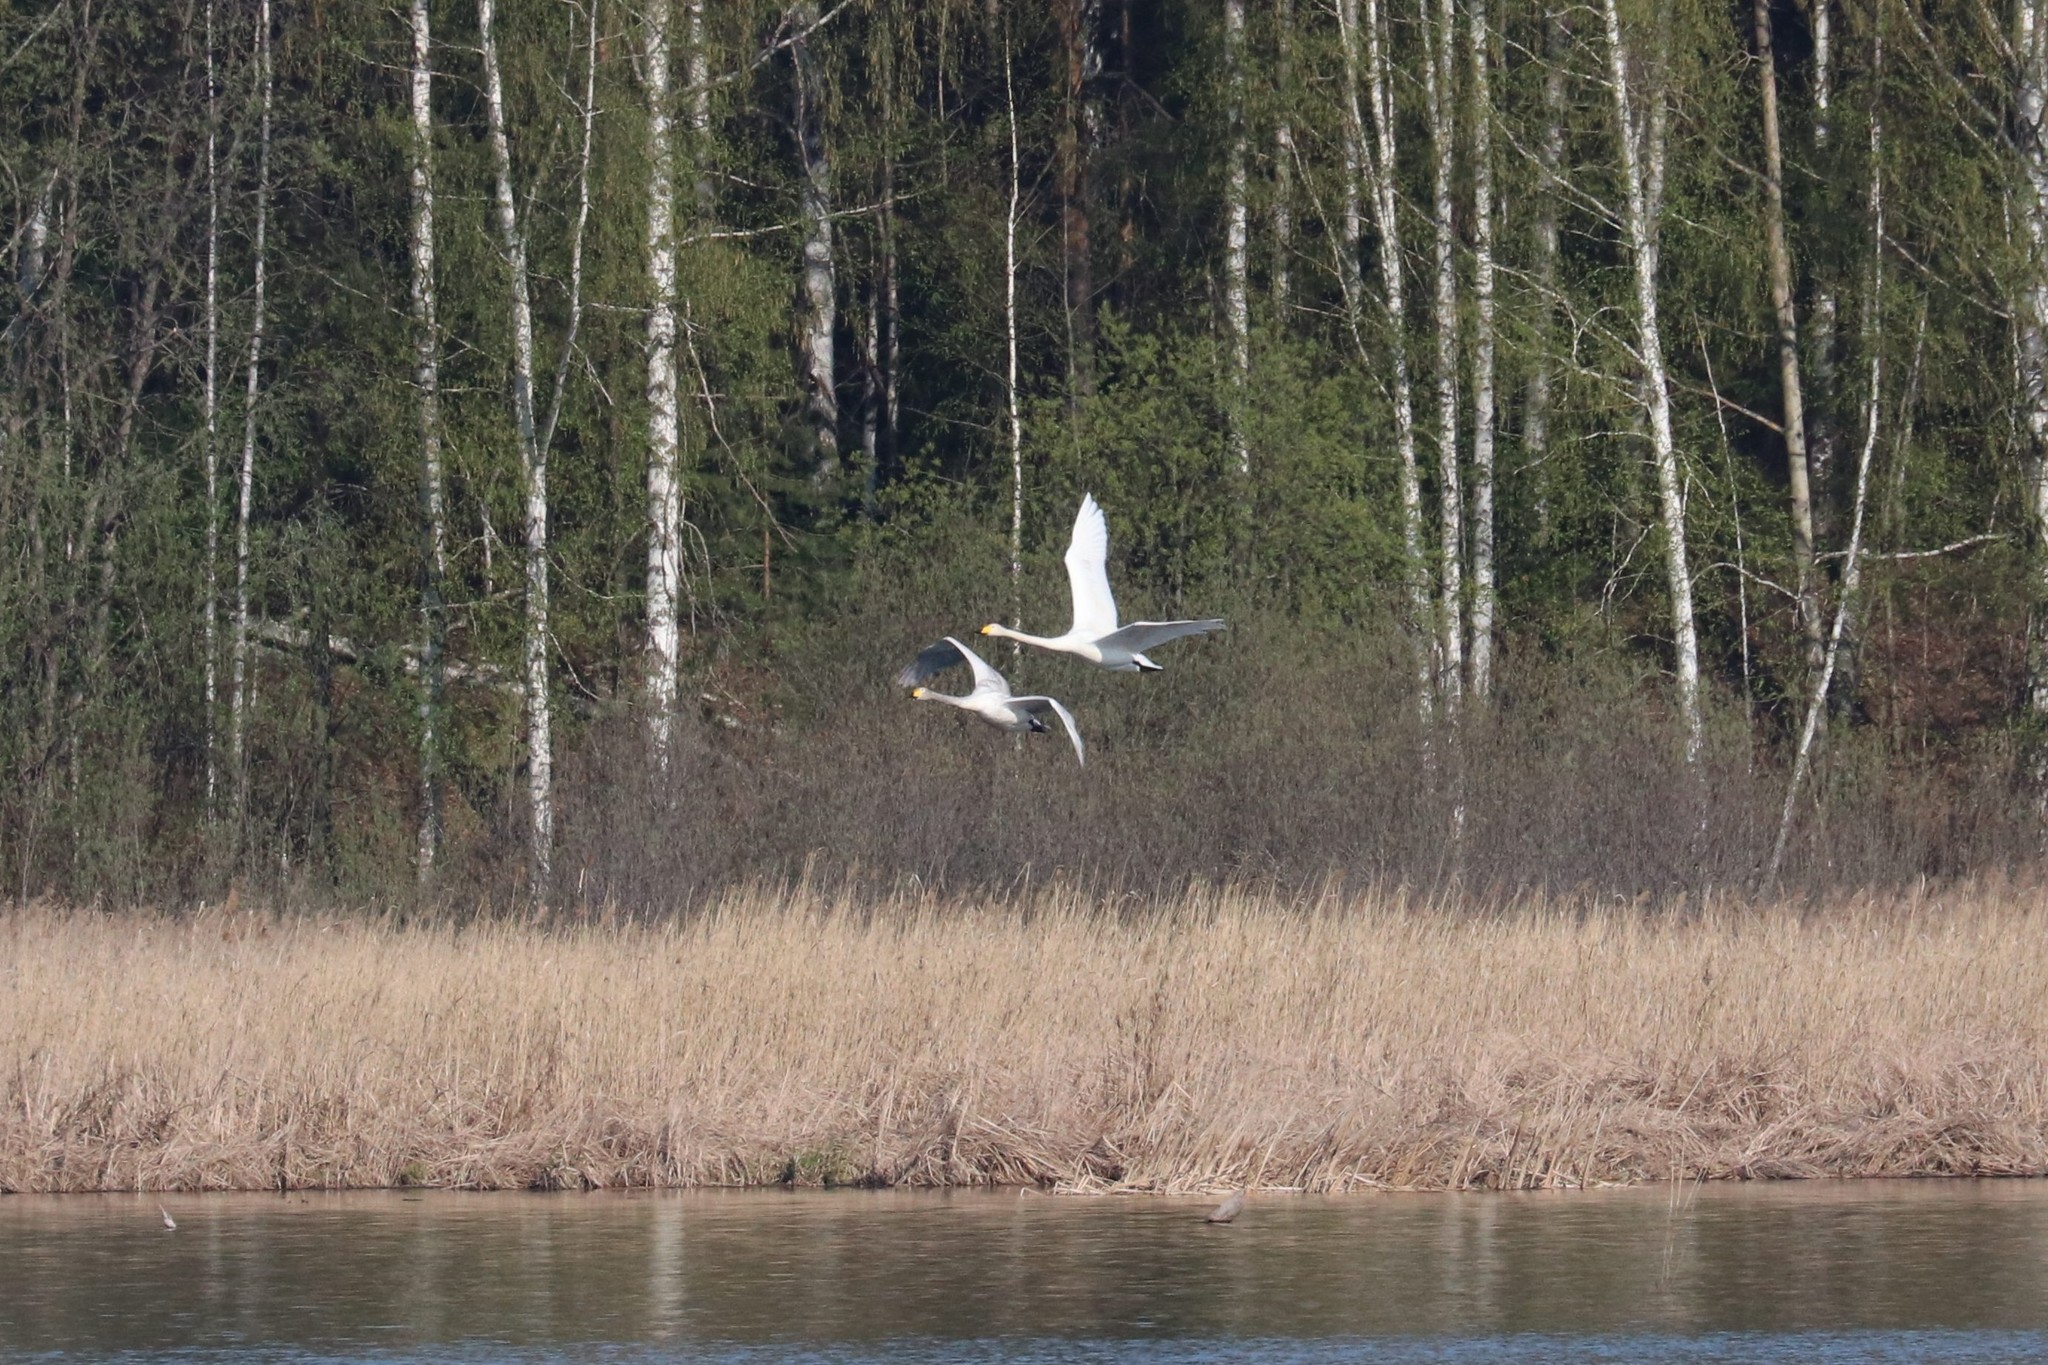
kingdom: Animalia
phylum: Chordata
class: Aves
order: Anseriformes
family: Anatidae
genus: Cygnus
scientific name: Cygnus cygnus
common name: Whooper swan
